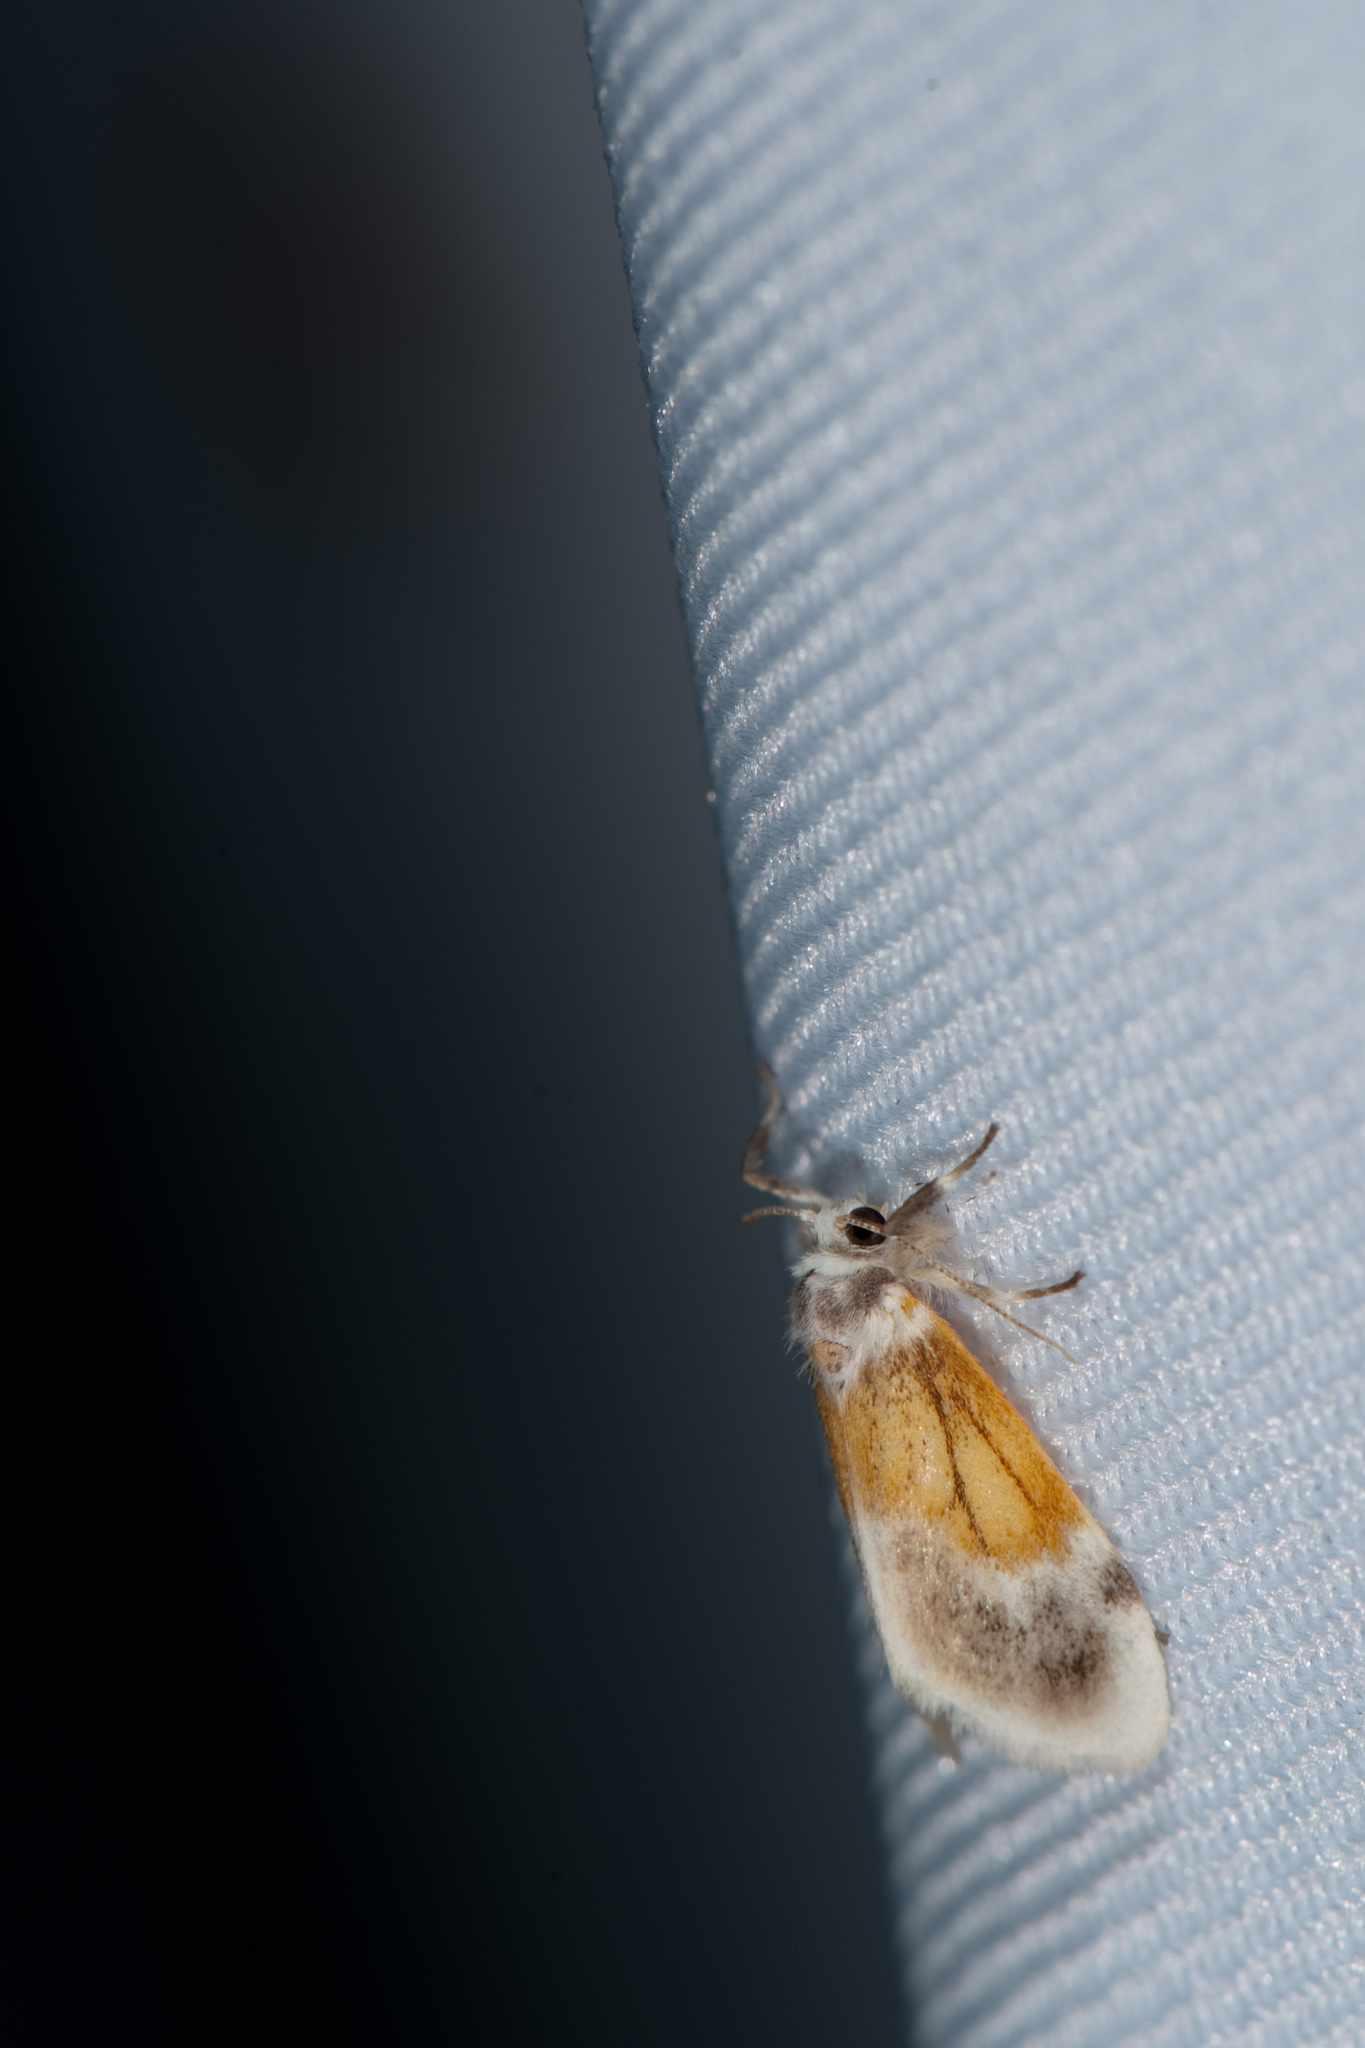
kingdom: Animalia
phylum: Arthropoda
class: Insecta
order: Lepidoptera
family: Erebidae
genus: Ovipennis
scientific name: Ovipennis semilutea
